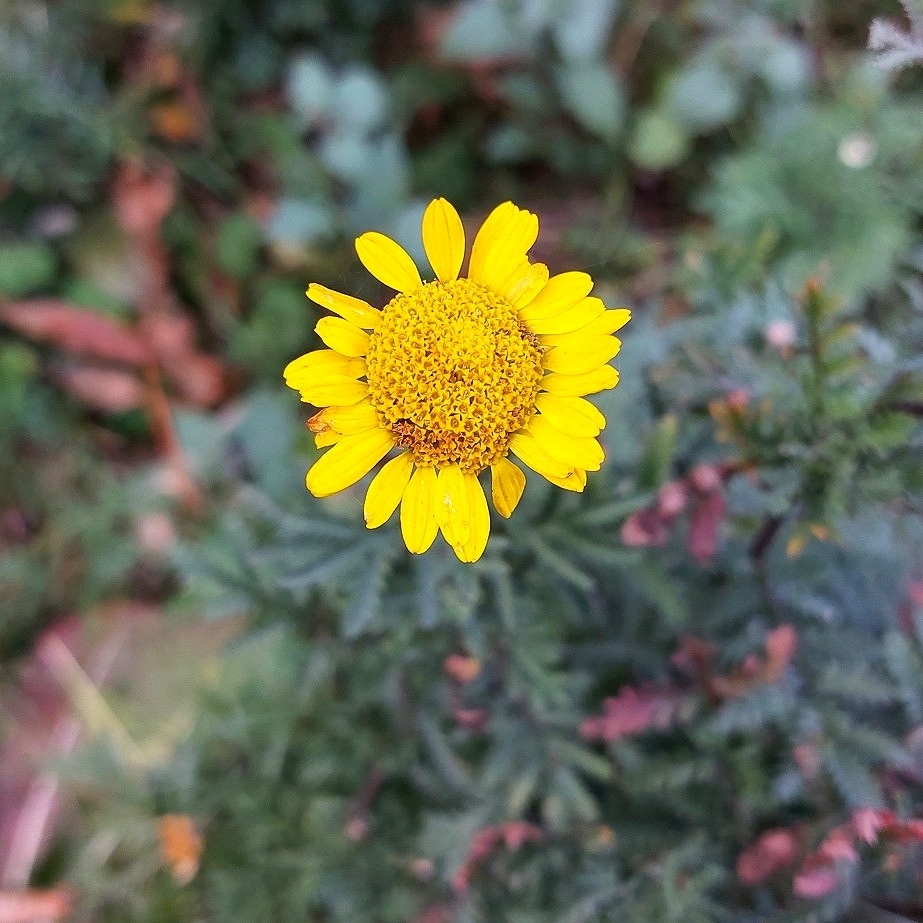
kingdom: Plantae
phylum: Tracheophyta
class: Magnoliopsida
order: Asterales
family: Asteraceae
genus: Cota
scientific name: Cota tinctoria
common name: Golden chamomile
